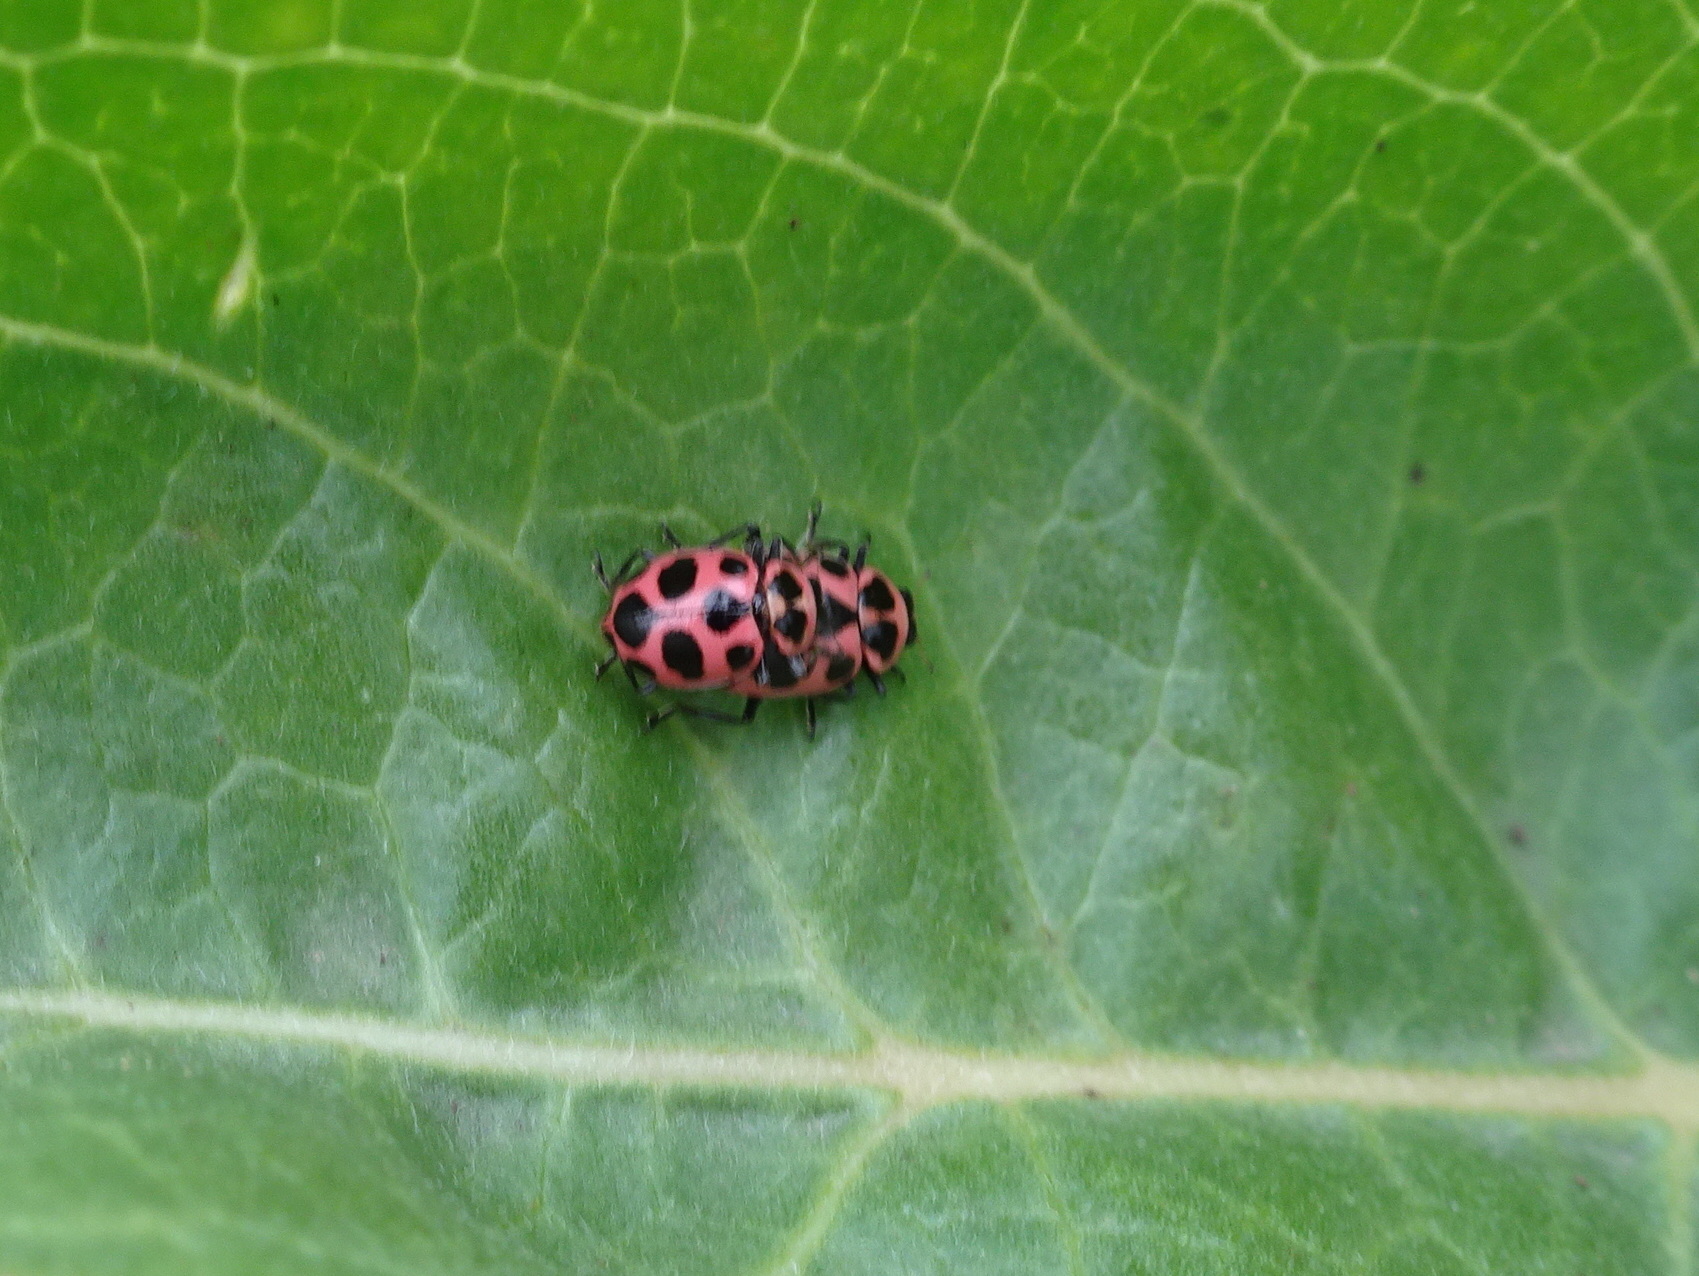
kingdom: Animalia
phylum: Arthropoda
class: Insecta
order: Coleoptera
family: Coccinellidae
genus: Coleomegilla
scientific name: Coleomegilla maculata
